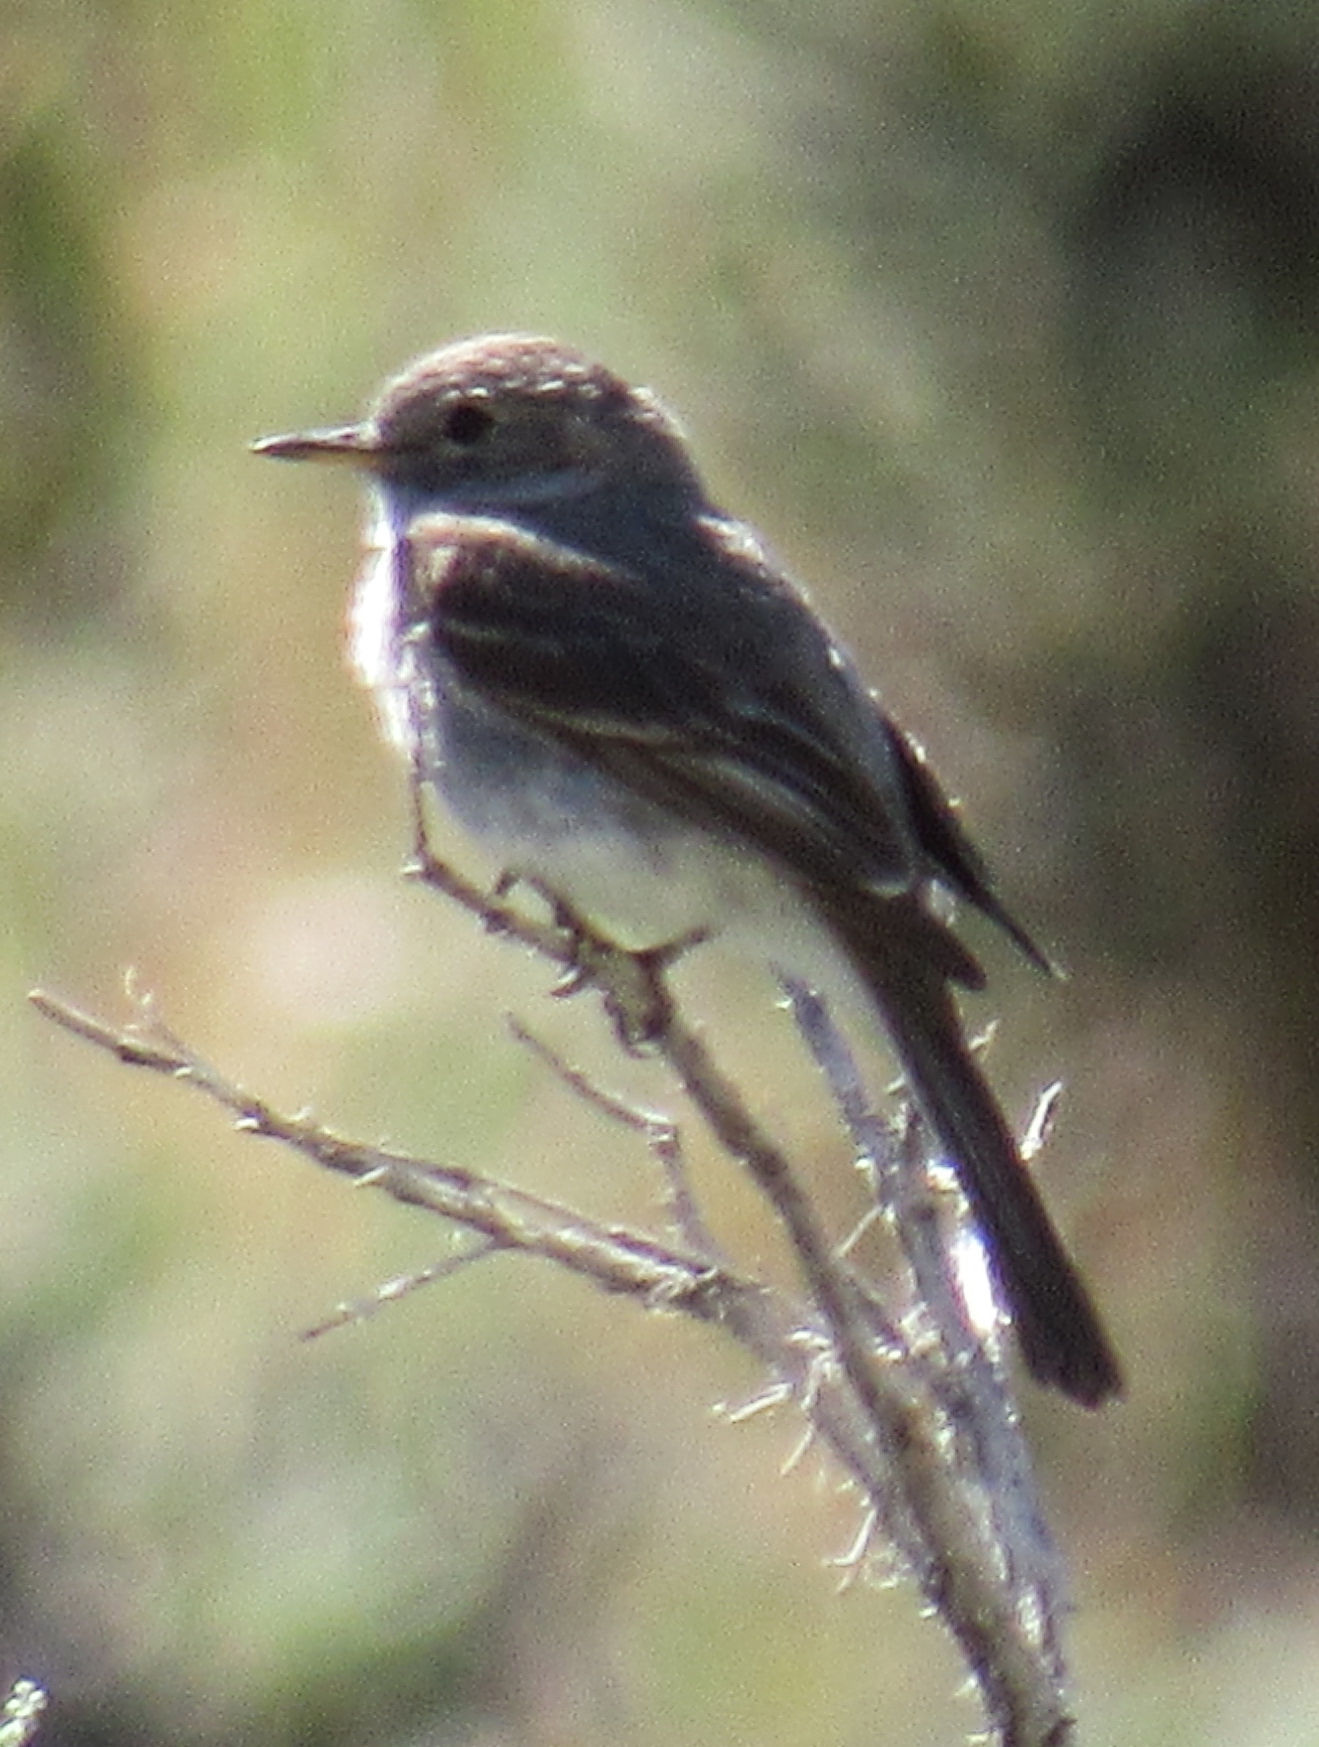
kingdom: Animalia
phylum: Chordata
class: Aves
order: Passeriformes
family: Tyrannidae
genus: Empidonax
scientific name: Empidonax wrightii
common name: Gray flycatcher
